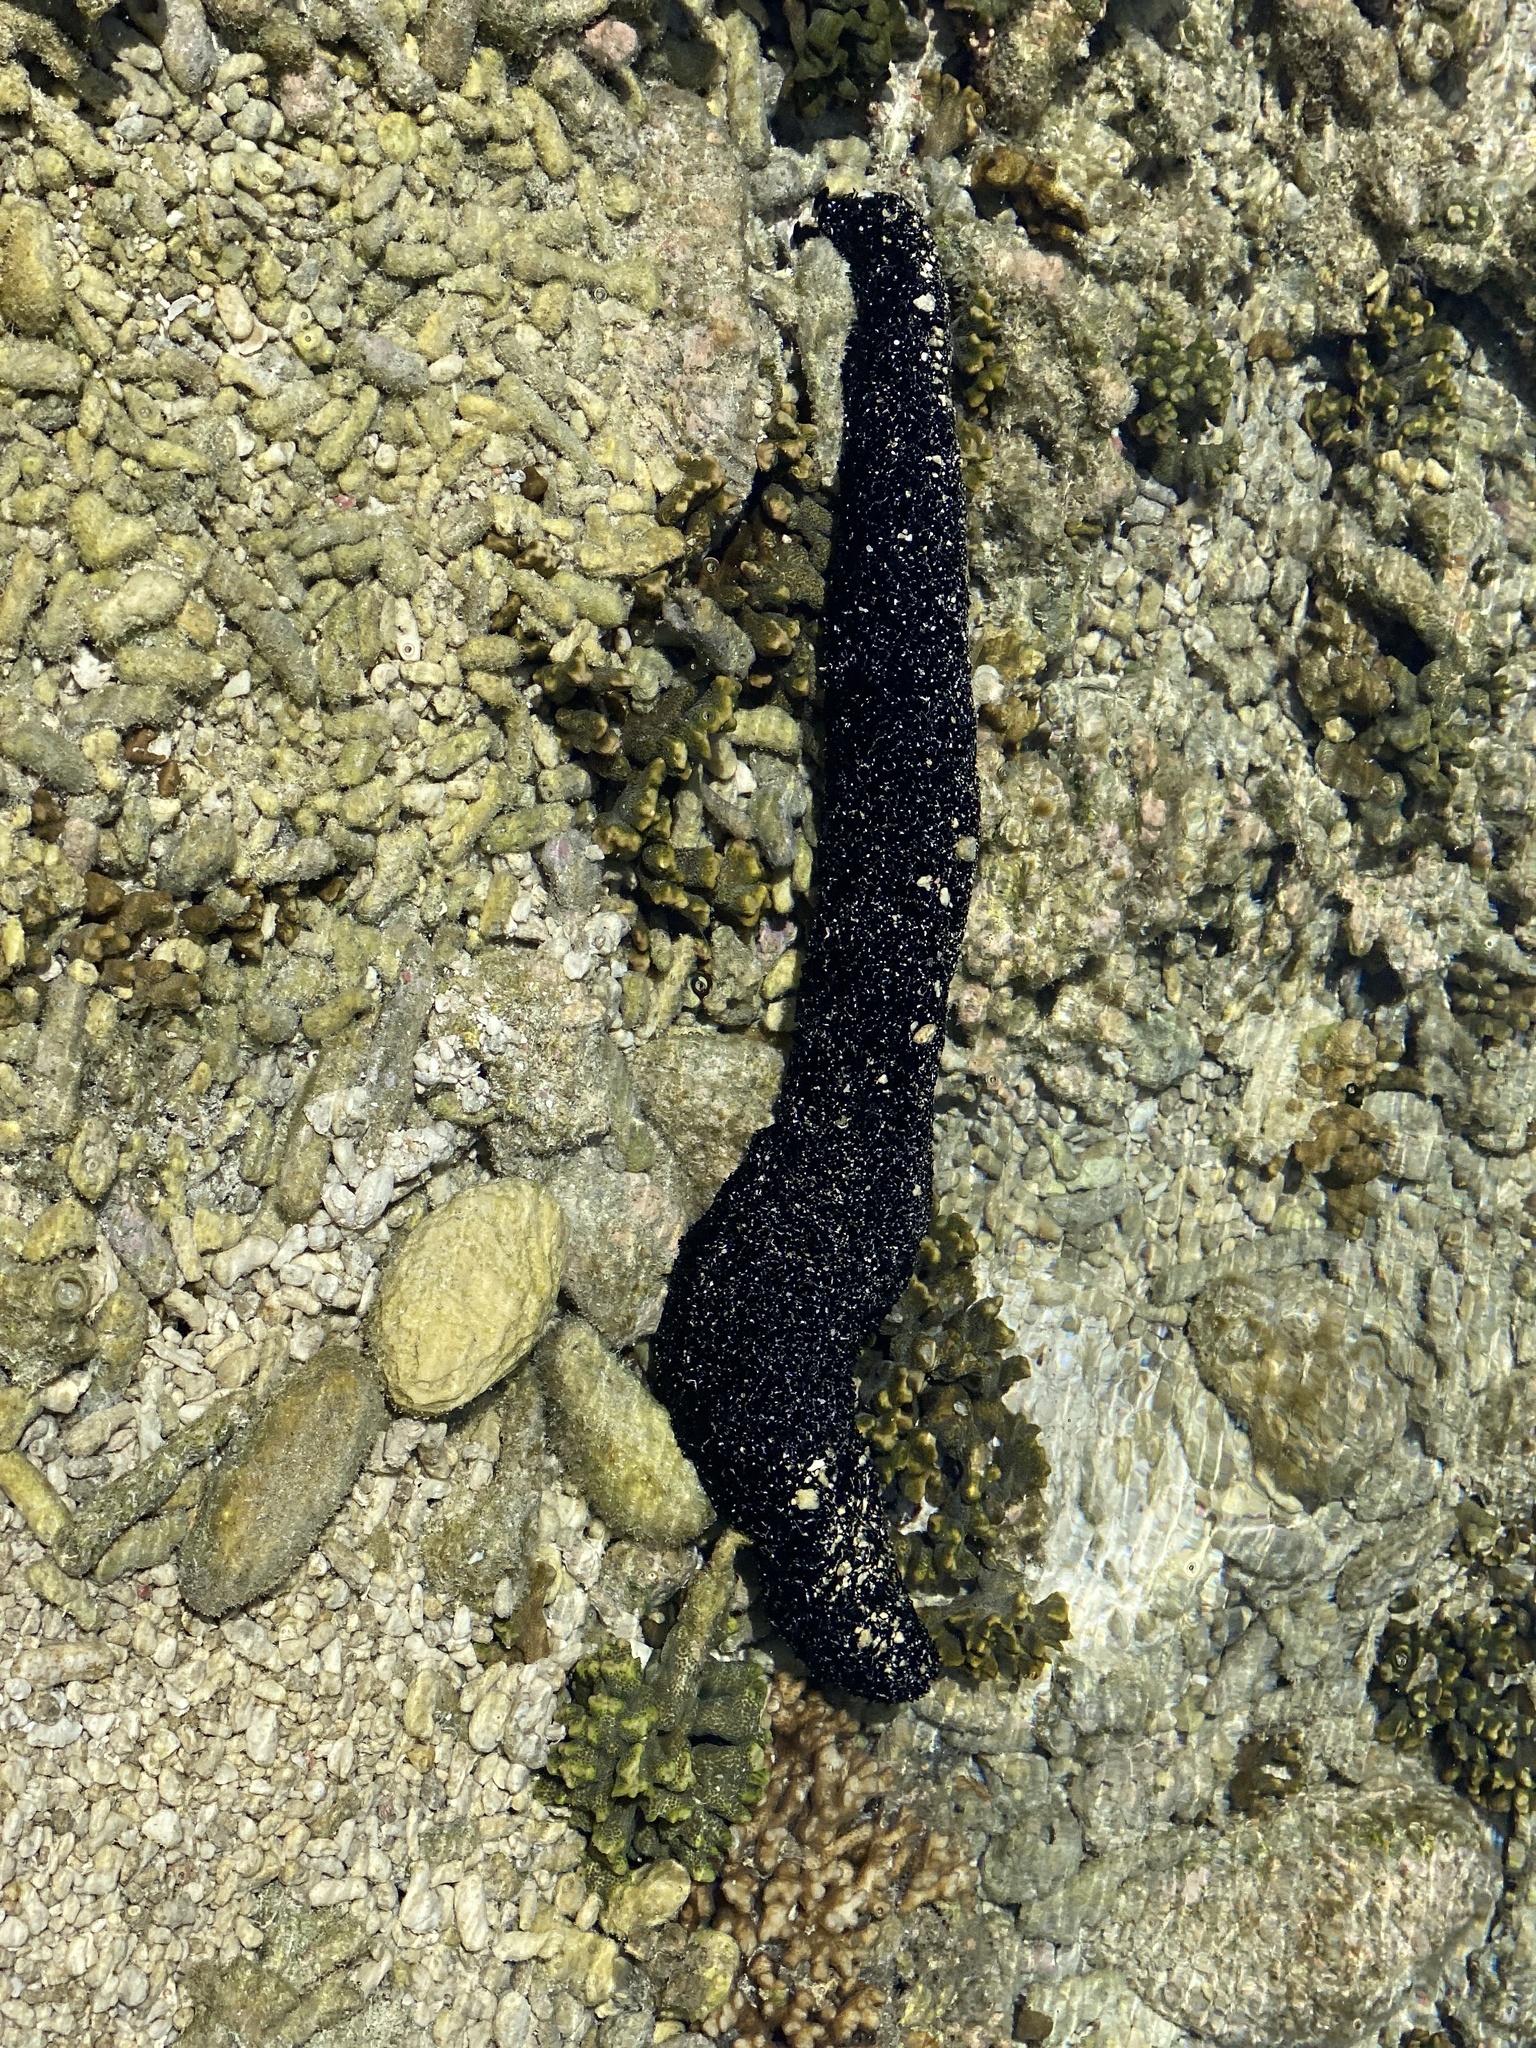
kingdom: Animalia
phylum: Echinodermata
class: Holothuroidea
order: Holothuriida
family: Holothuriidae
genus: Holothuria
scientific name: Holothuria leucospilota
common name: White thread fish
